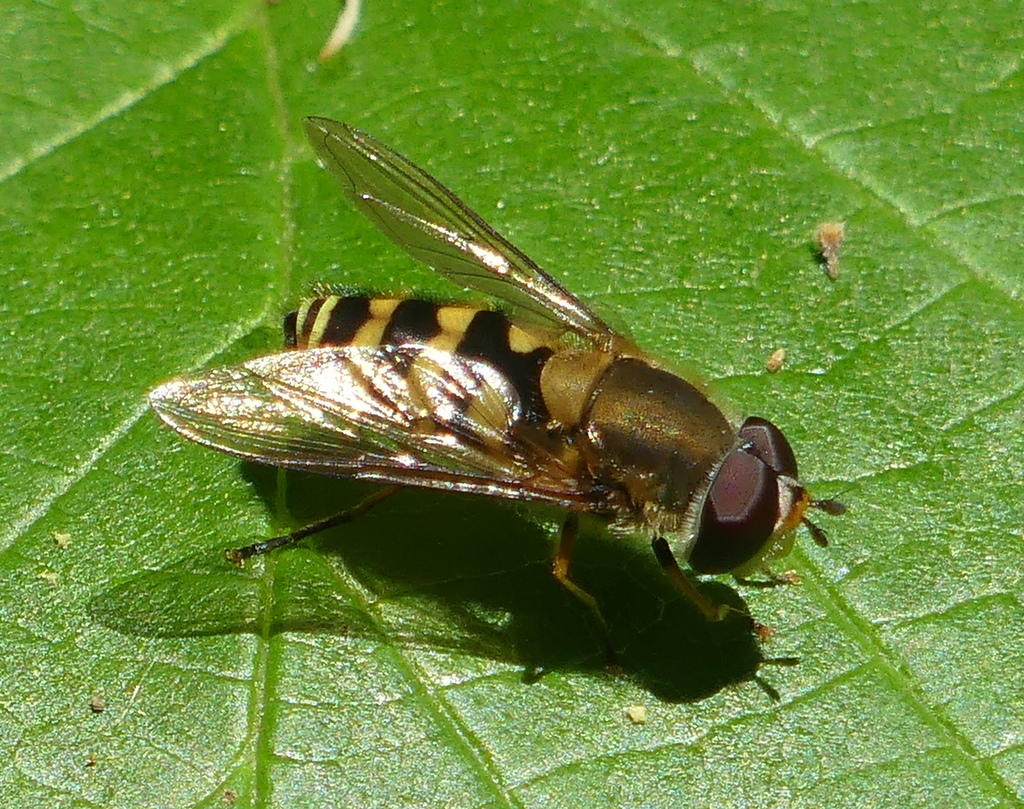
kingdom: Animalia
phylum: Arthropoda
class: Insecta
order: Diptera
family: Syrphidae
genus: Syrphus
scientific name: Syrphus
